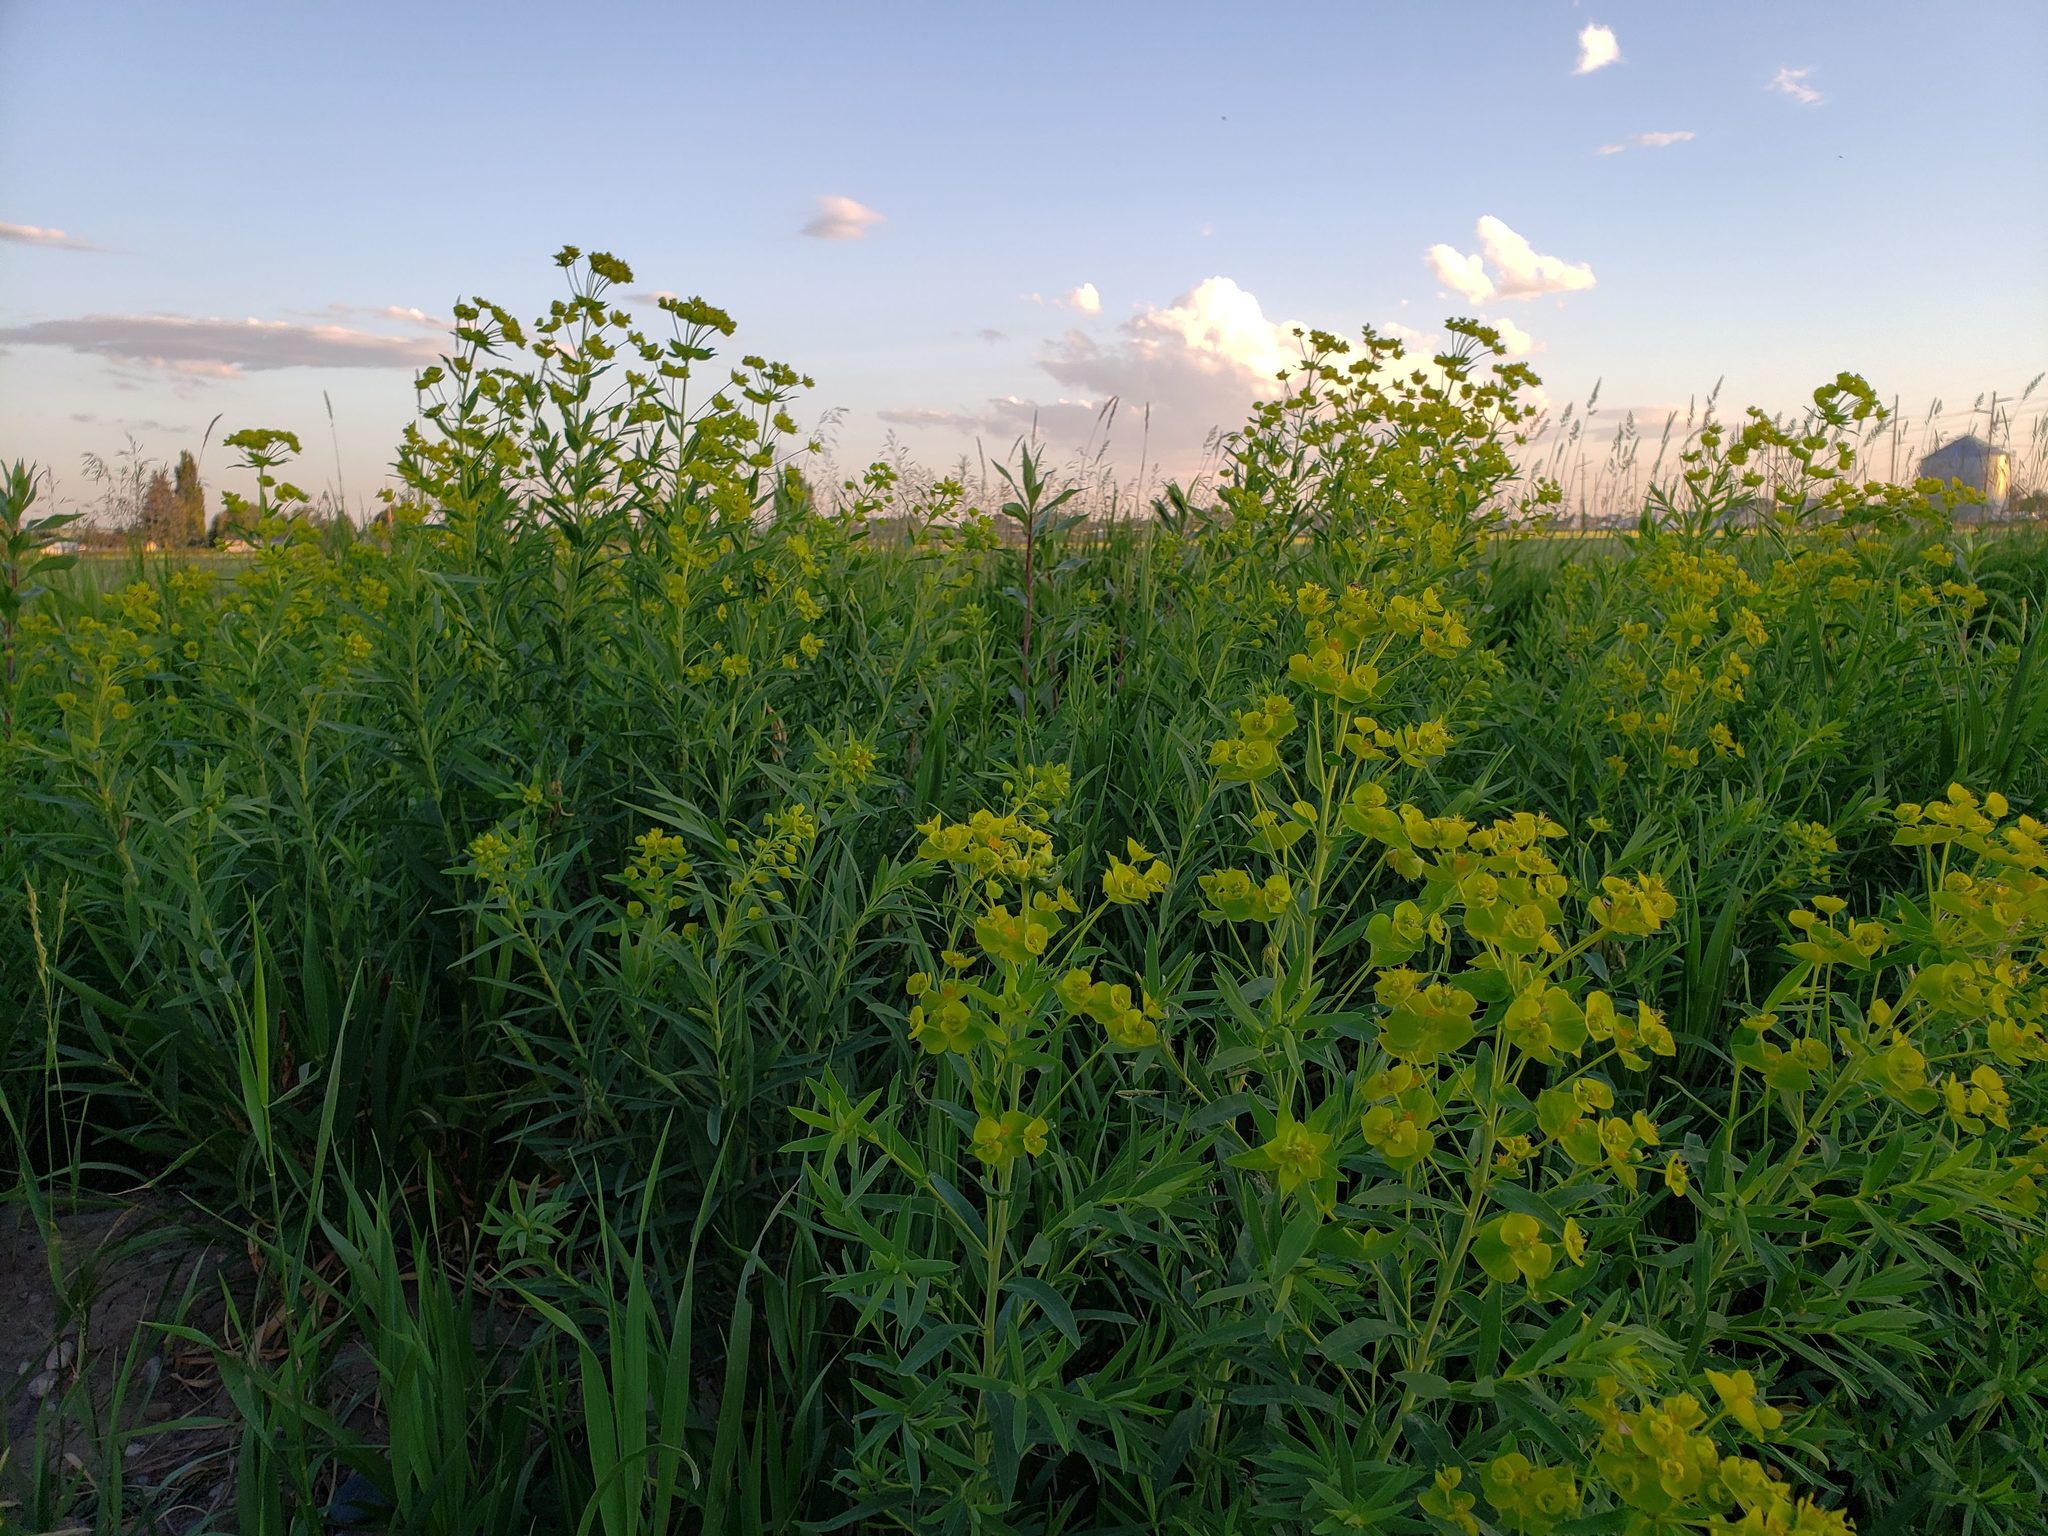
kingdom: Plantae
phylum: Tracheophyta
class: Magnoliopsida
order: Malpighiales
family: Euphorbiaceae
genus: Euphorbia
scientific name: Euphorbia virgata
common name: Leafy spurge
